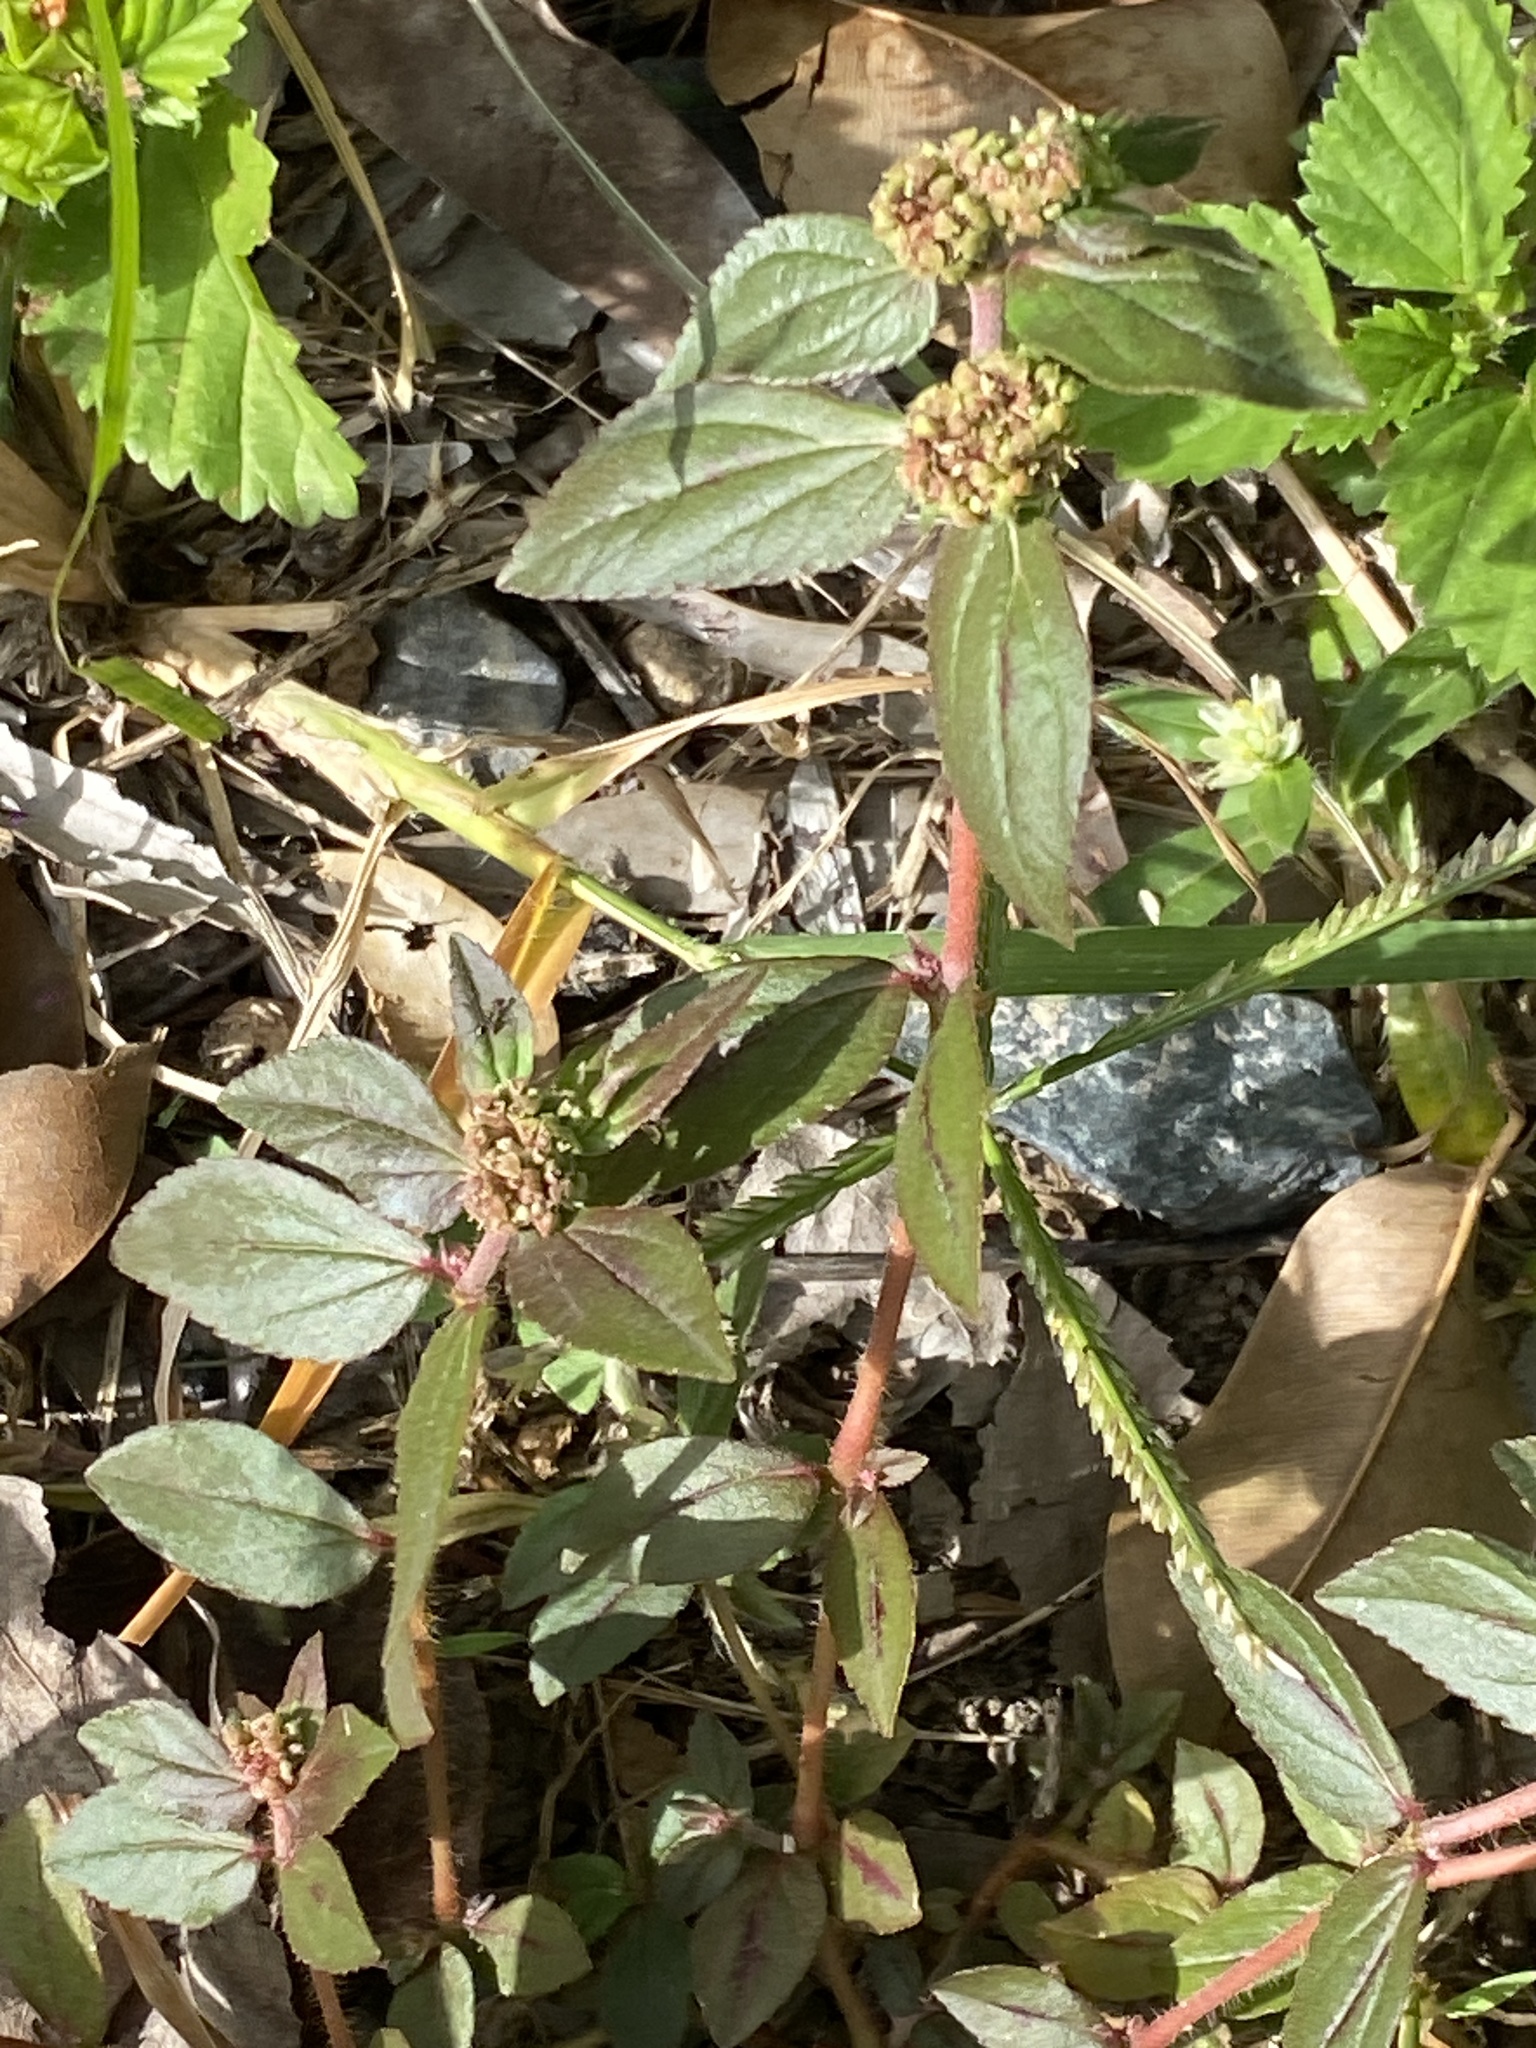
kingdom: Plantae
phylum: Tracheophyta
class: Magnoliopsida
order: Malpighiales
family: Euphorbiaceae
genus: Euphorbia
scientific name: Euphorbia hirta
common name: Pillpod sandmat
